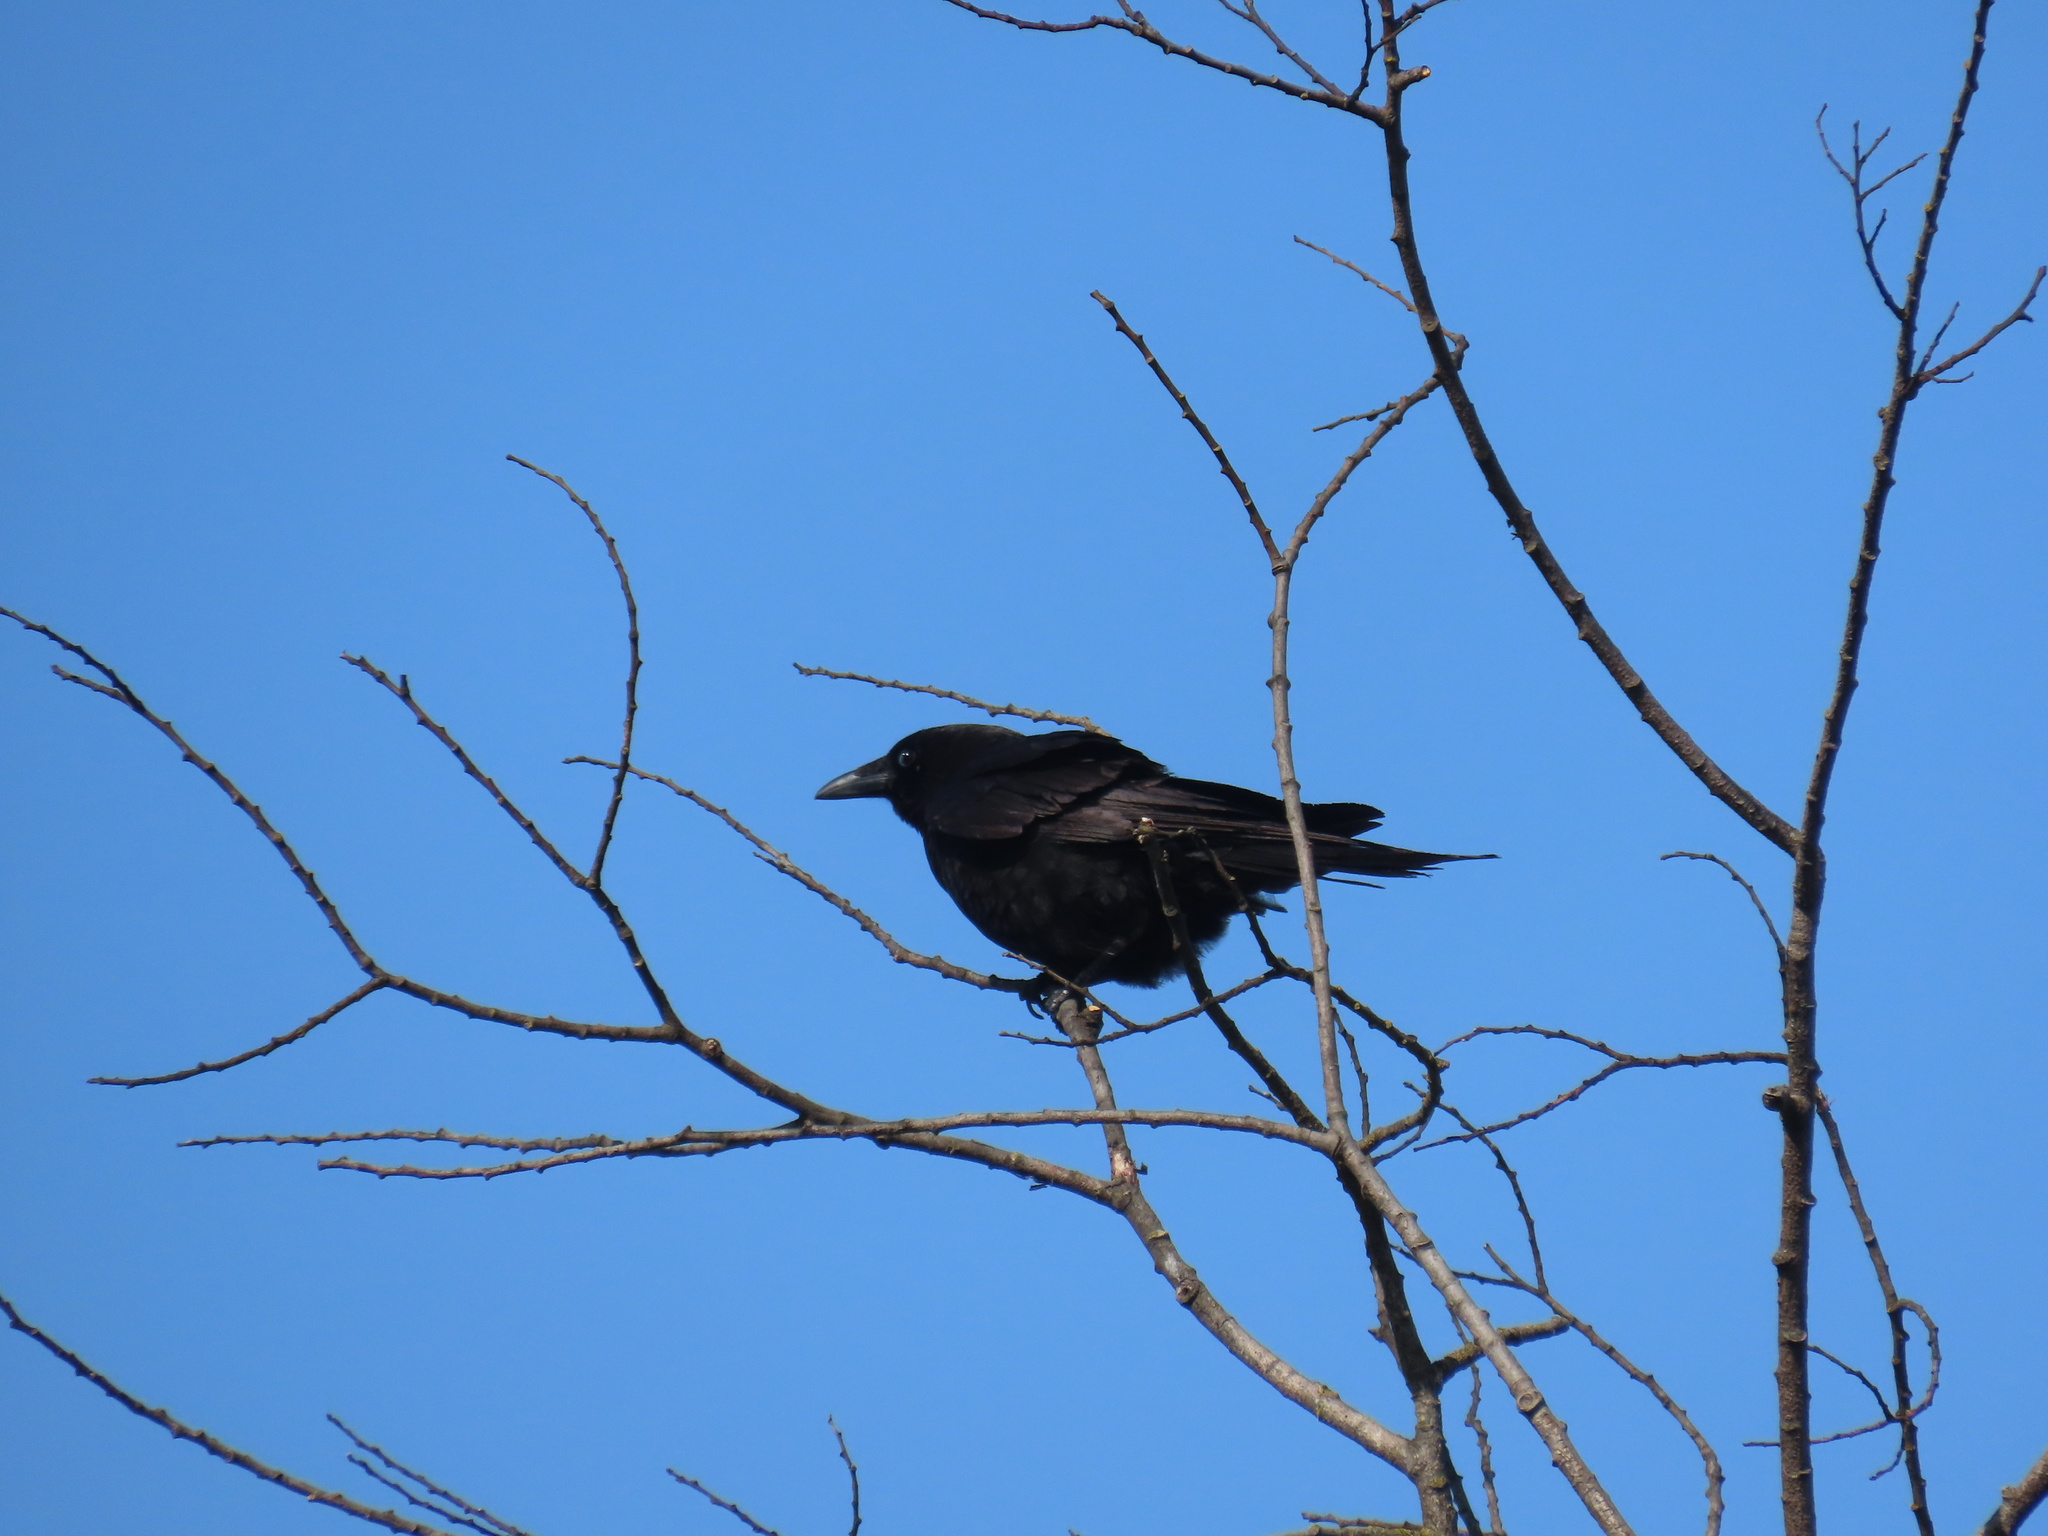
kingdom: Animalia
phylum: Chordata
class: Aves
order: Passeriformes
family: Corvidae
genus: Corvus
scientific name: Corvus brachyrhynchos
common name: American crow
